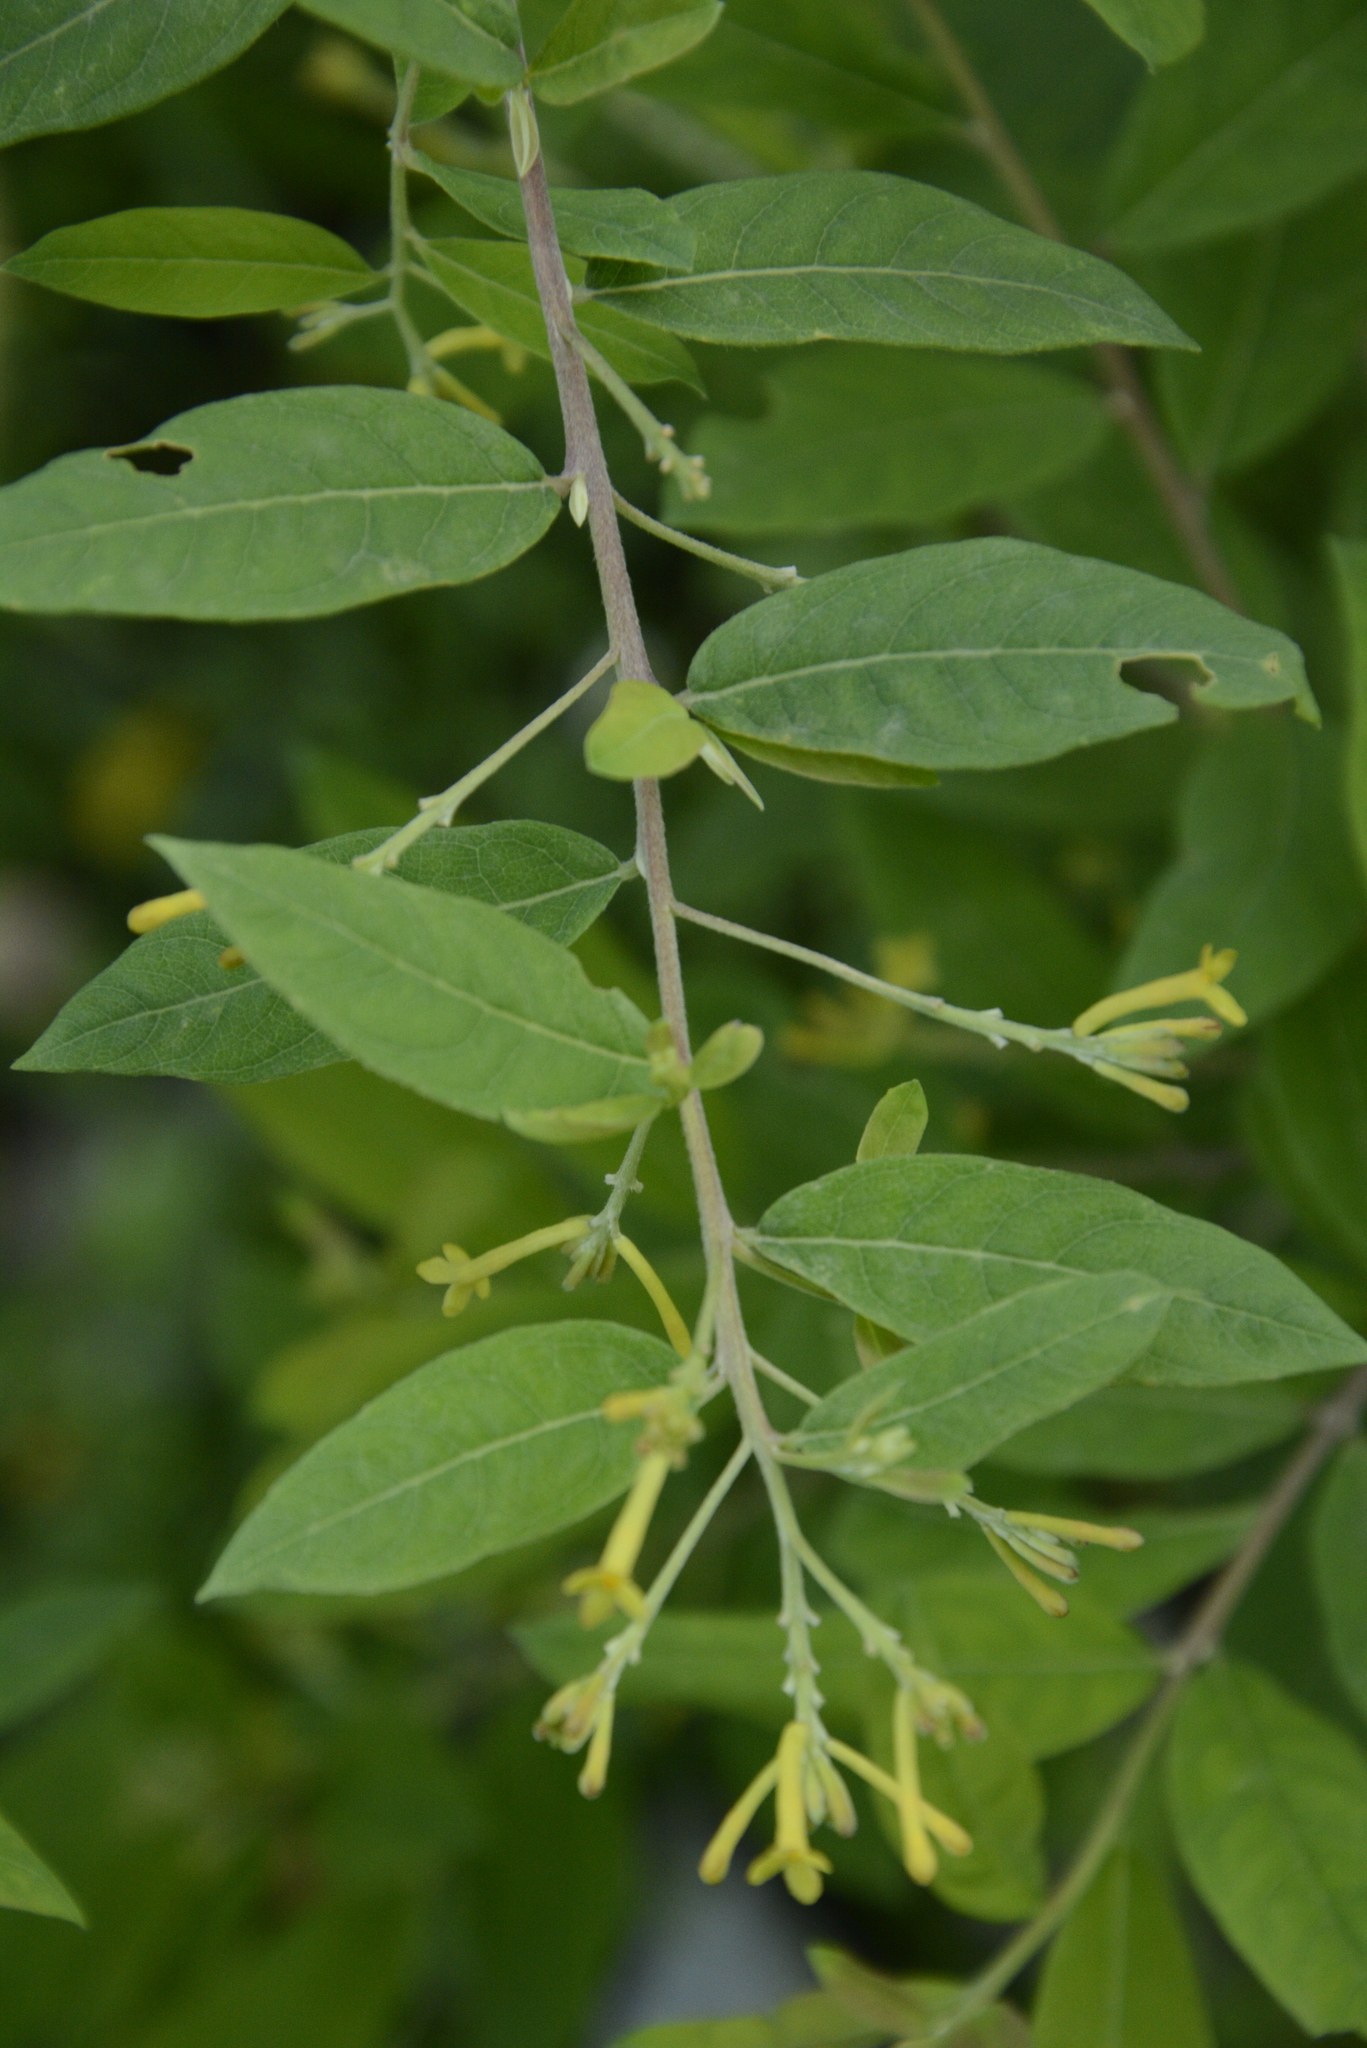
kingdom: Plantae
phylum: Tracheophyta
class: Magnoliopsida
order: Malvales
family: Thymelaeaceae
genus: Wikstroemia
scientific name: Wikstroemia canescens
